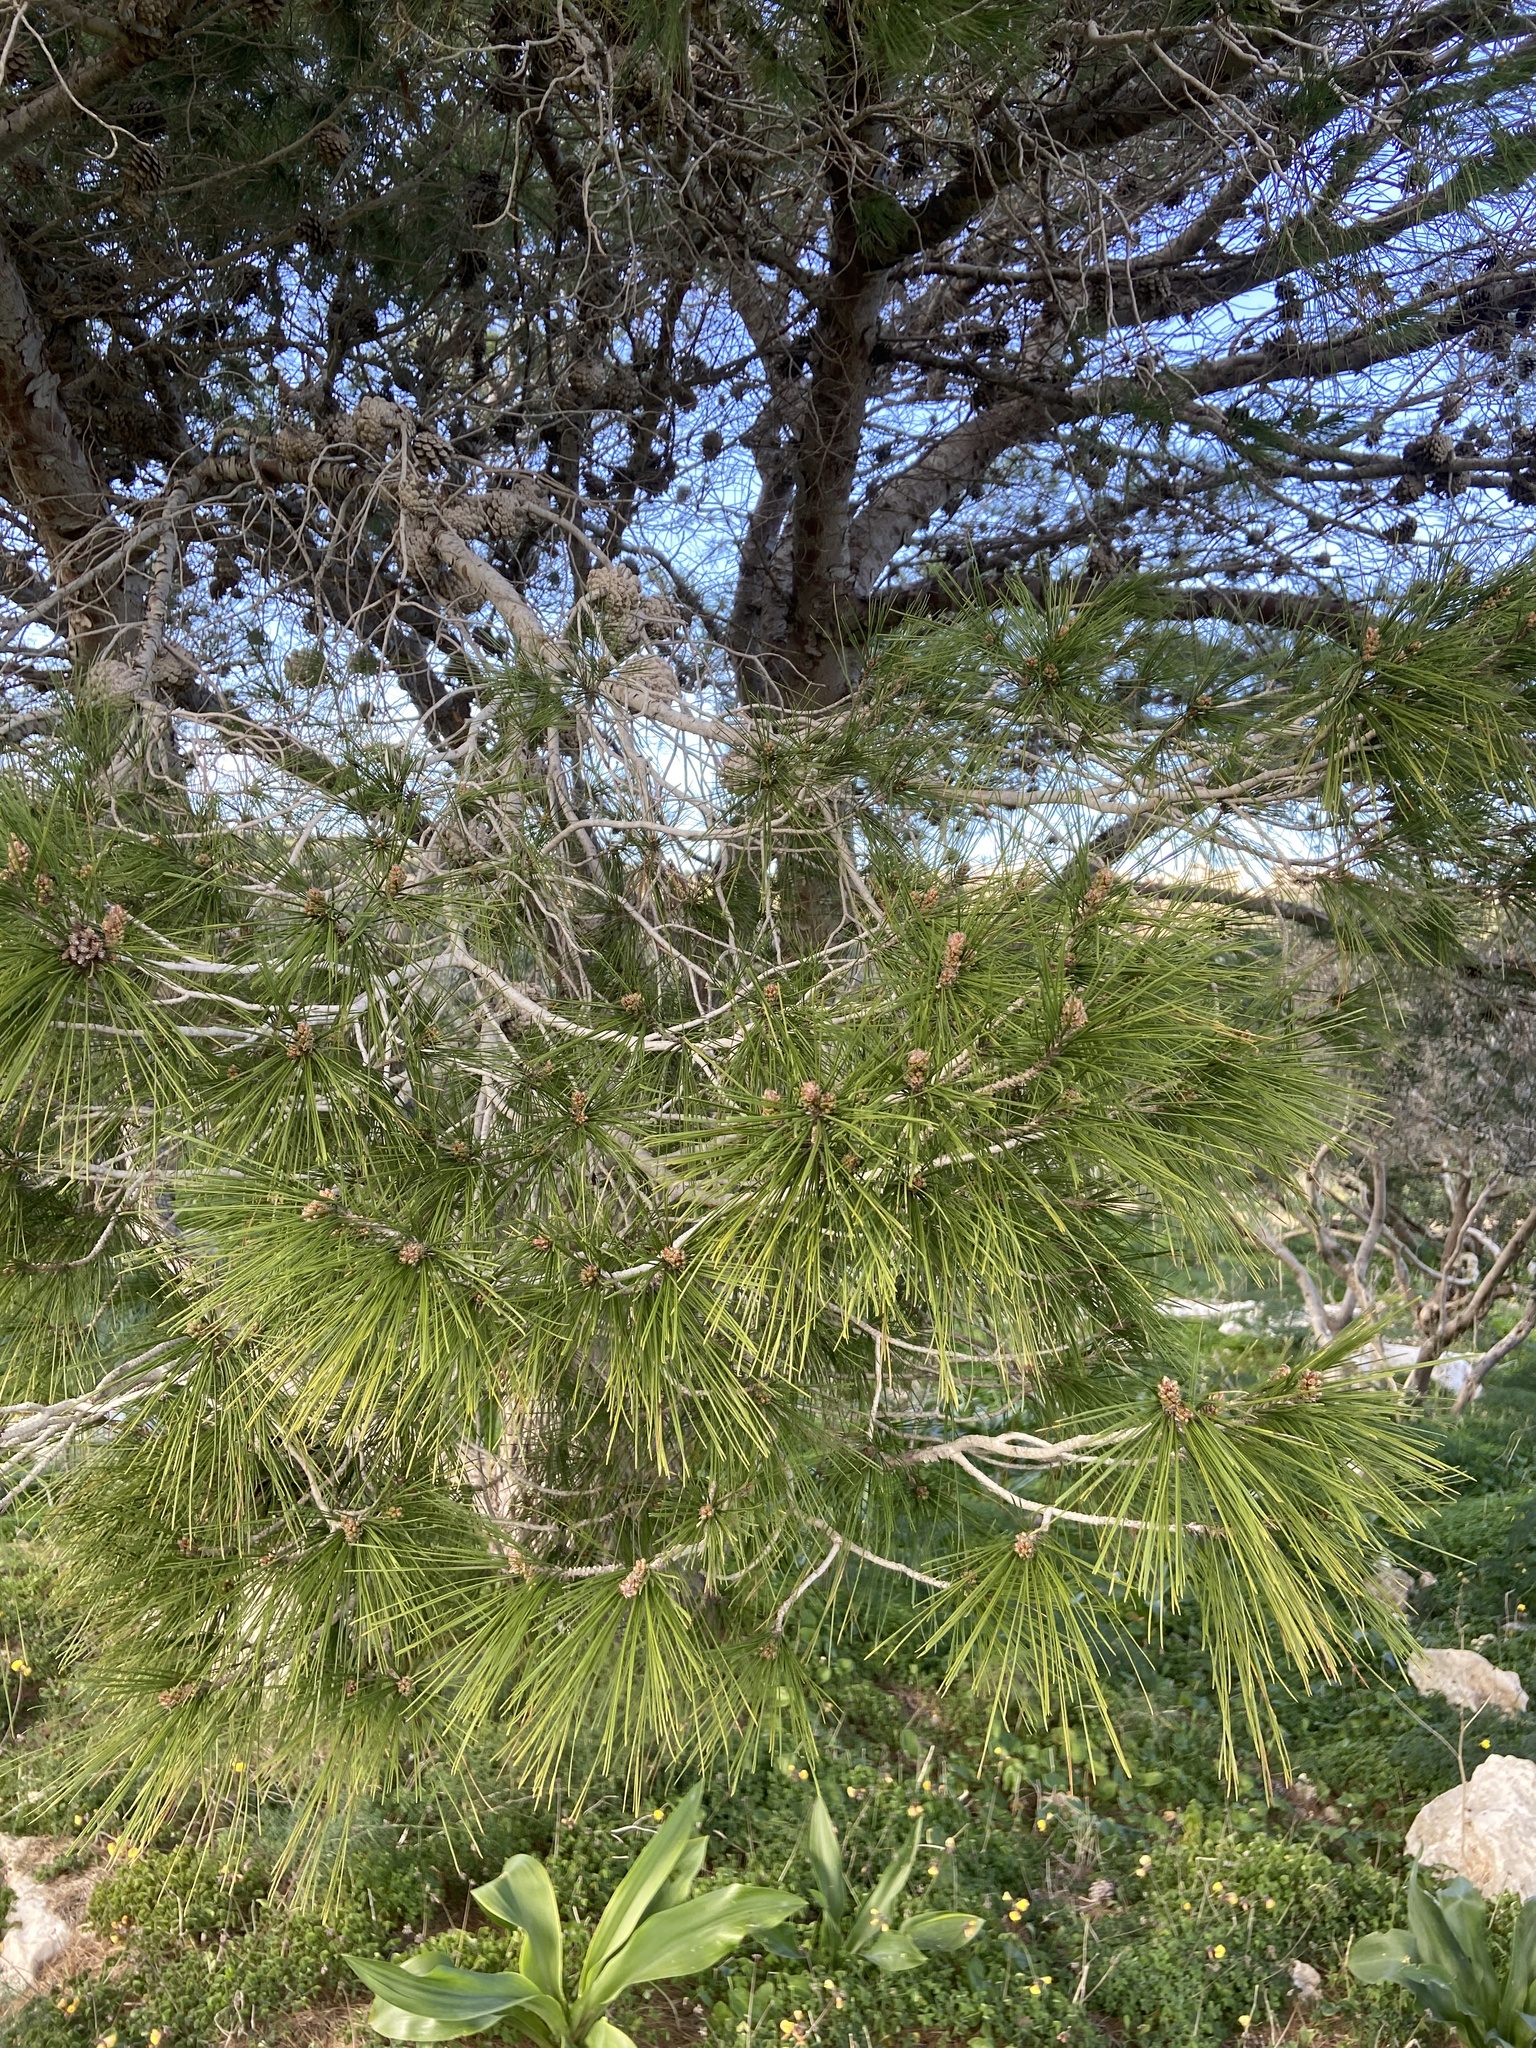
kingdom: Plantae
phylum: Tracheophyta
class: Pinopsida
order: Pinales
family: Pinaceae
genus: Pinus
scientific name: Pinus halepensis
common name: Aleppo pine
